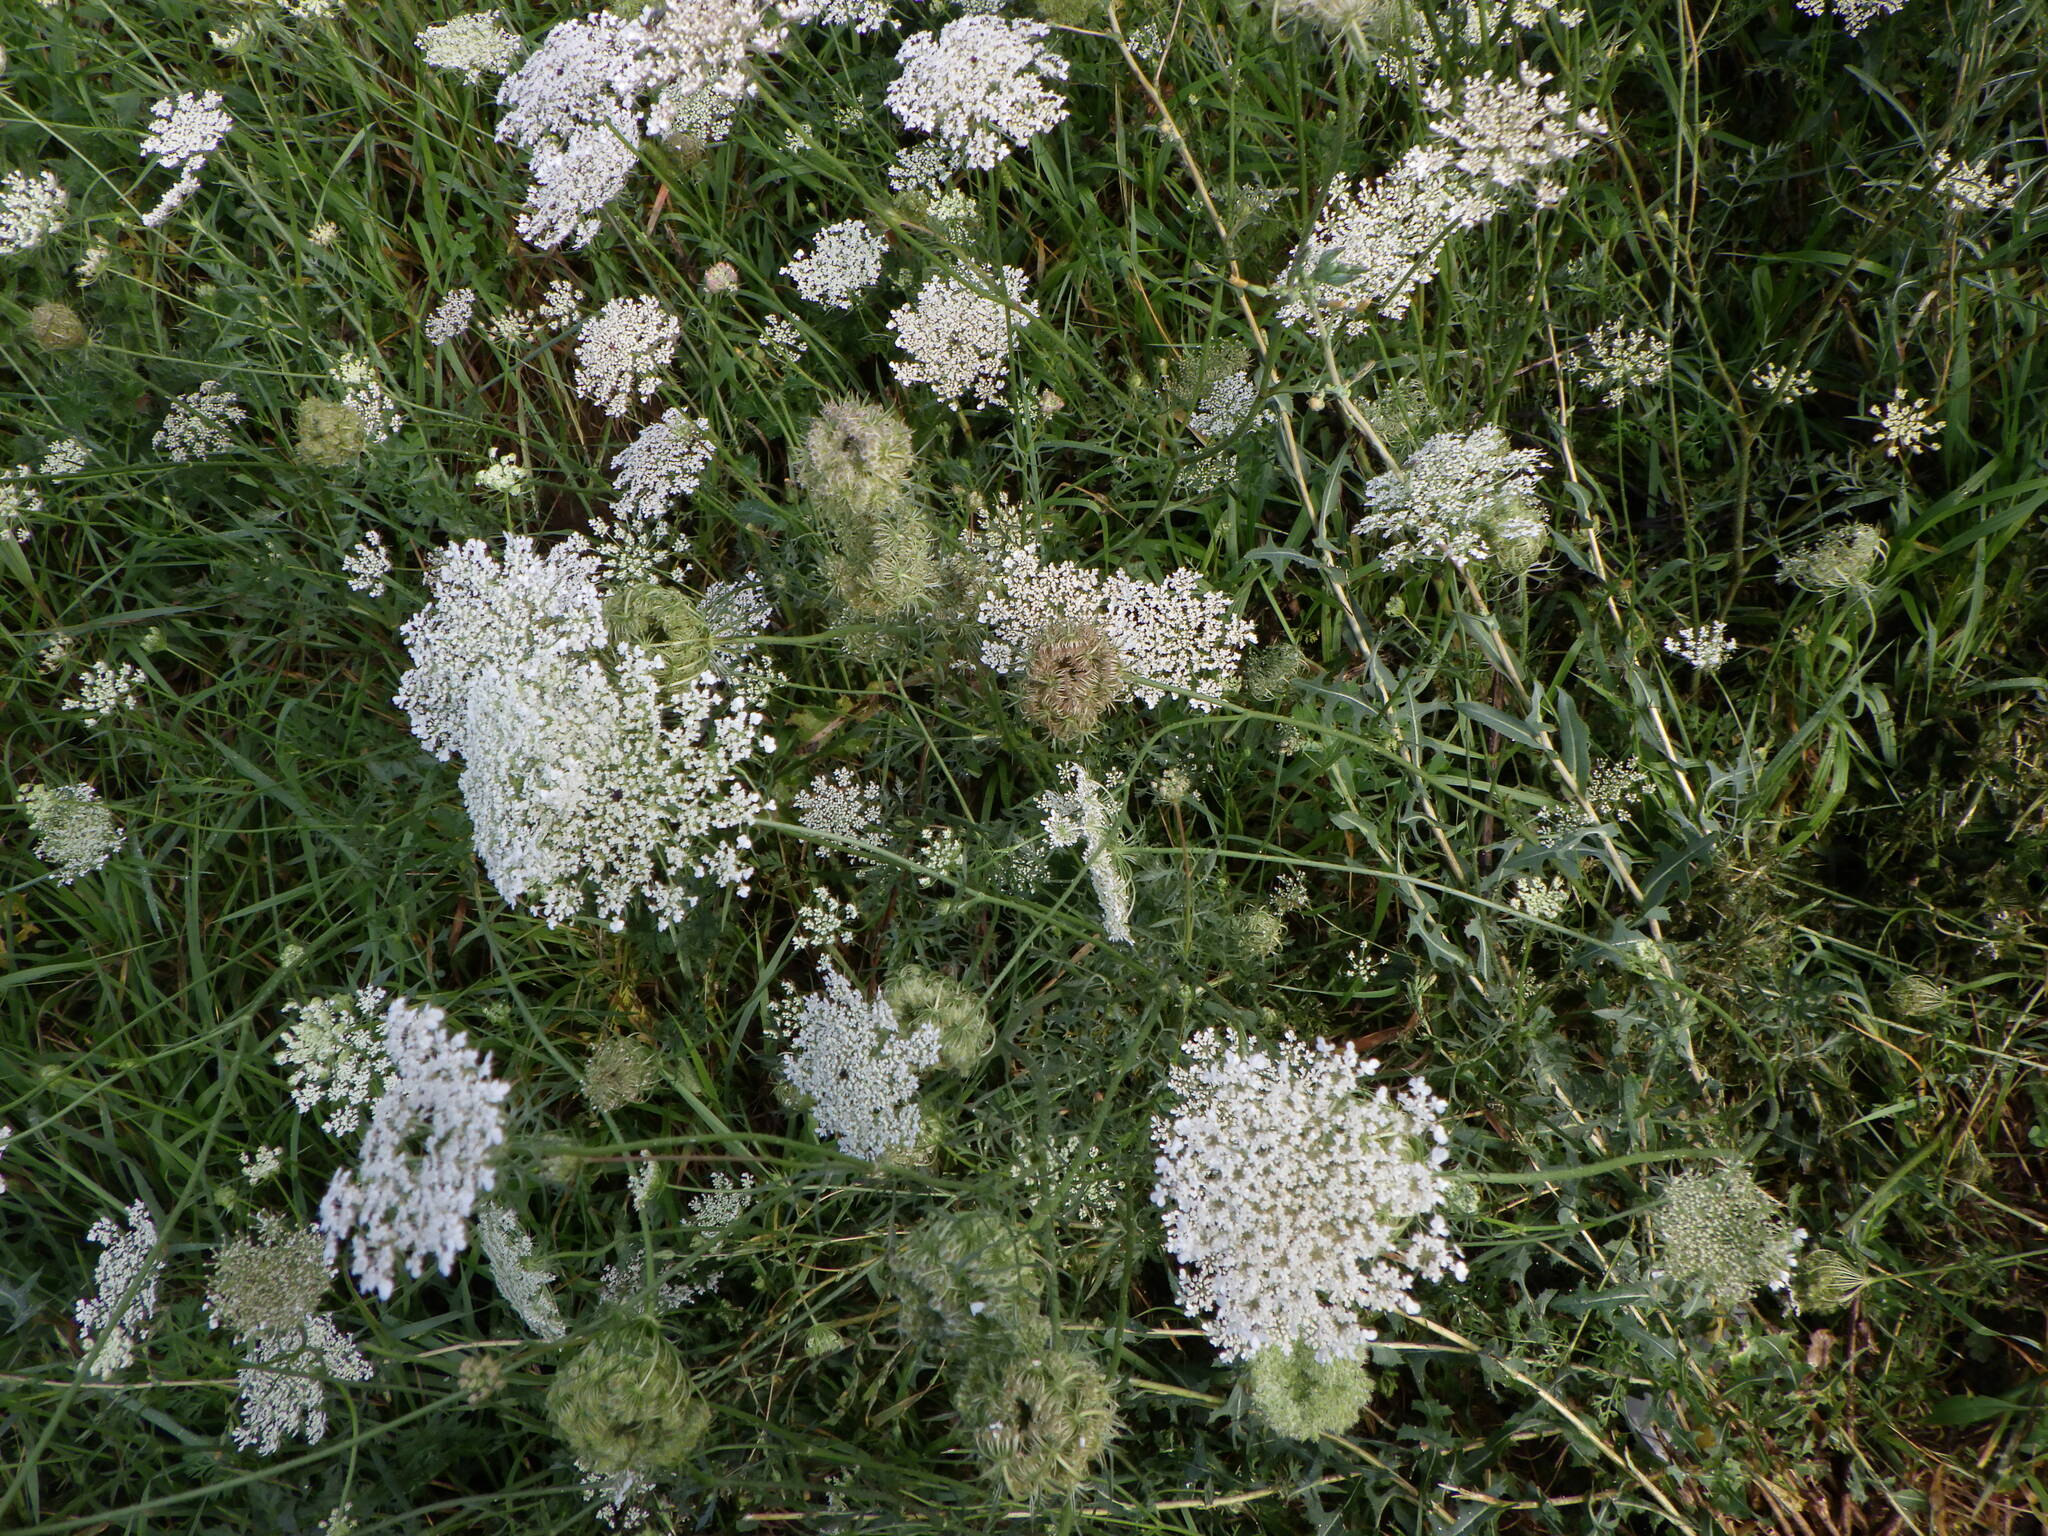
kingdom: Plantae
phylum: Tracheophyta
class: Magnoliopsida
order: Apiales
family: Apiaceae
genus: Daucus
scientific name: Daucus carota
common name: Wild carrot
